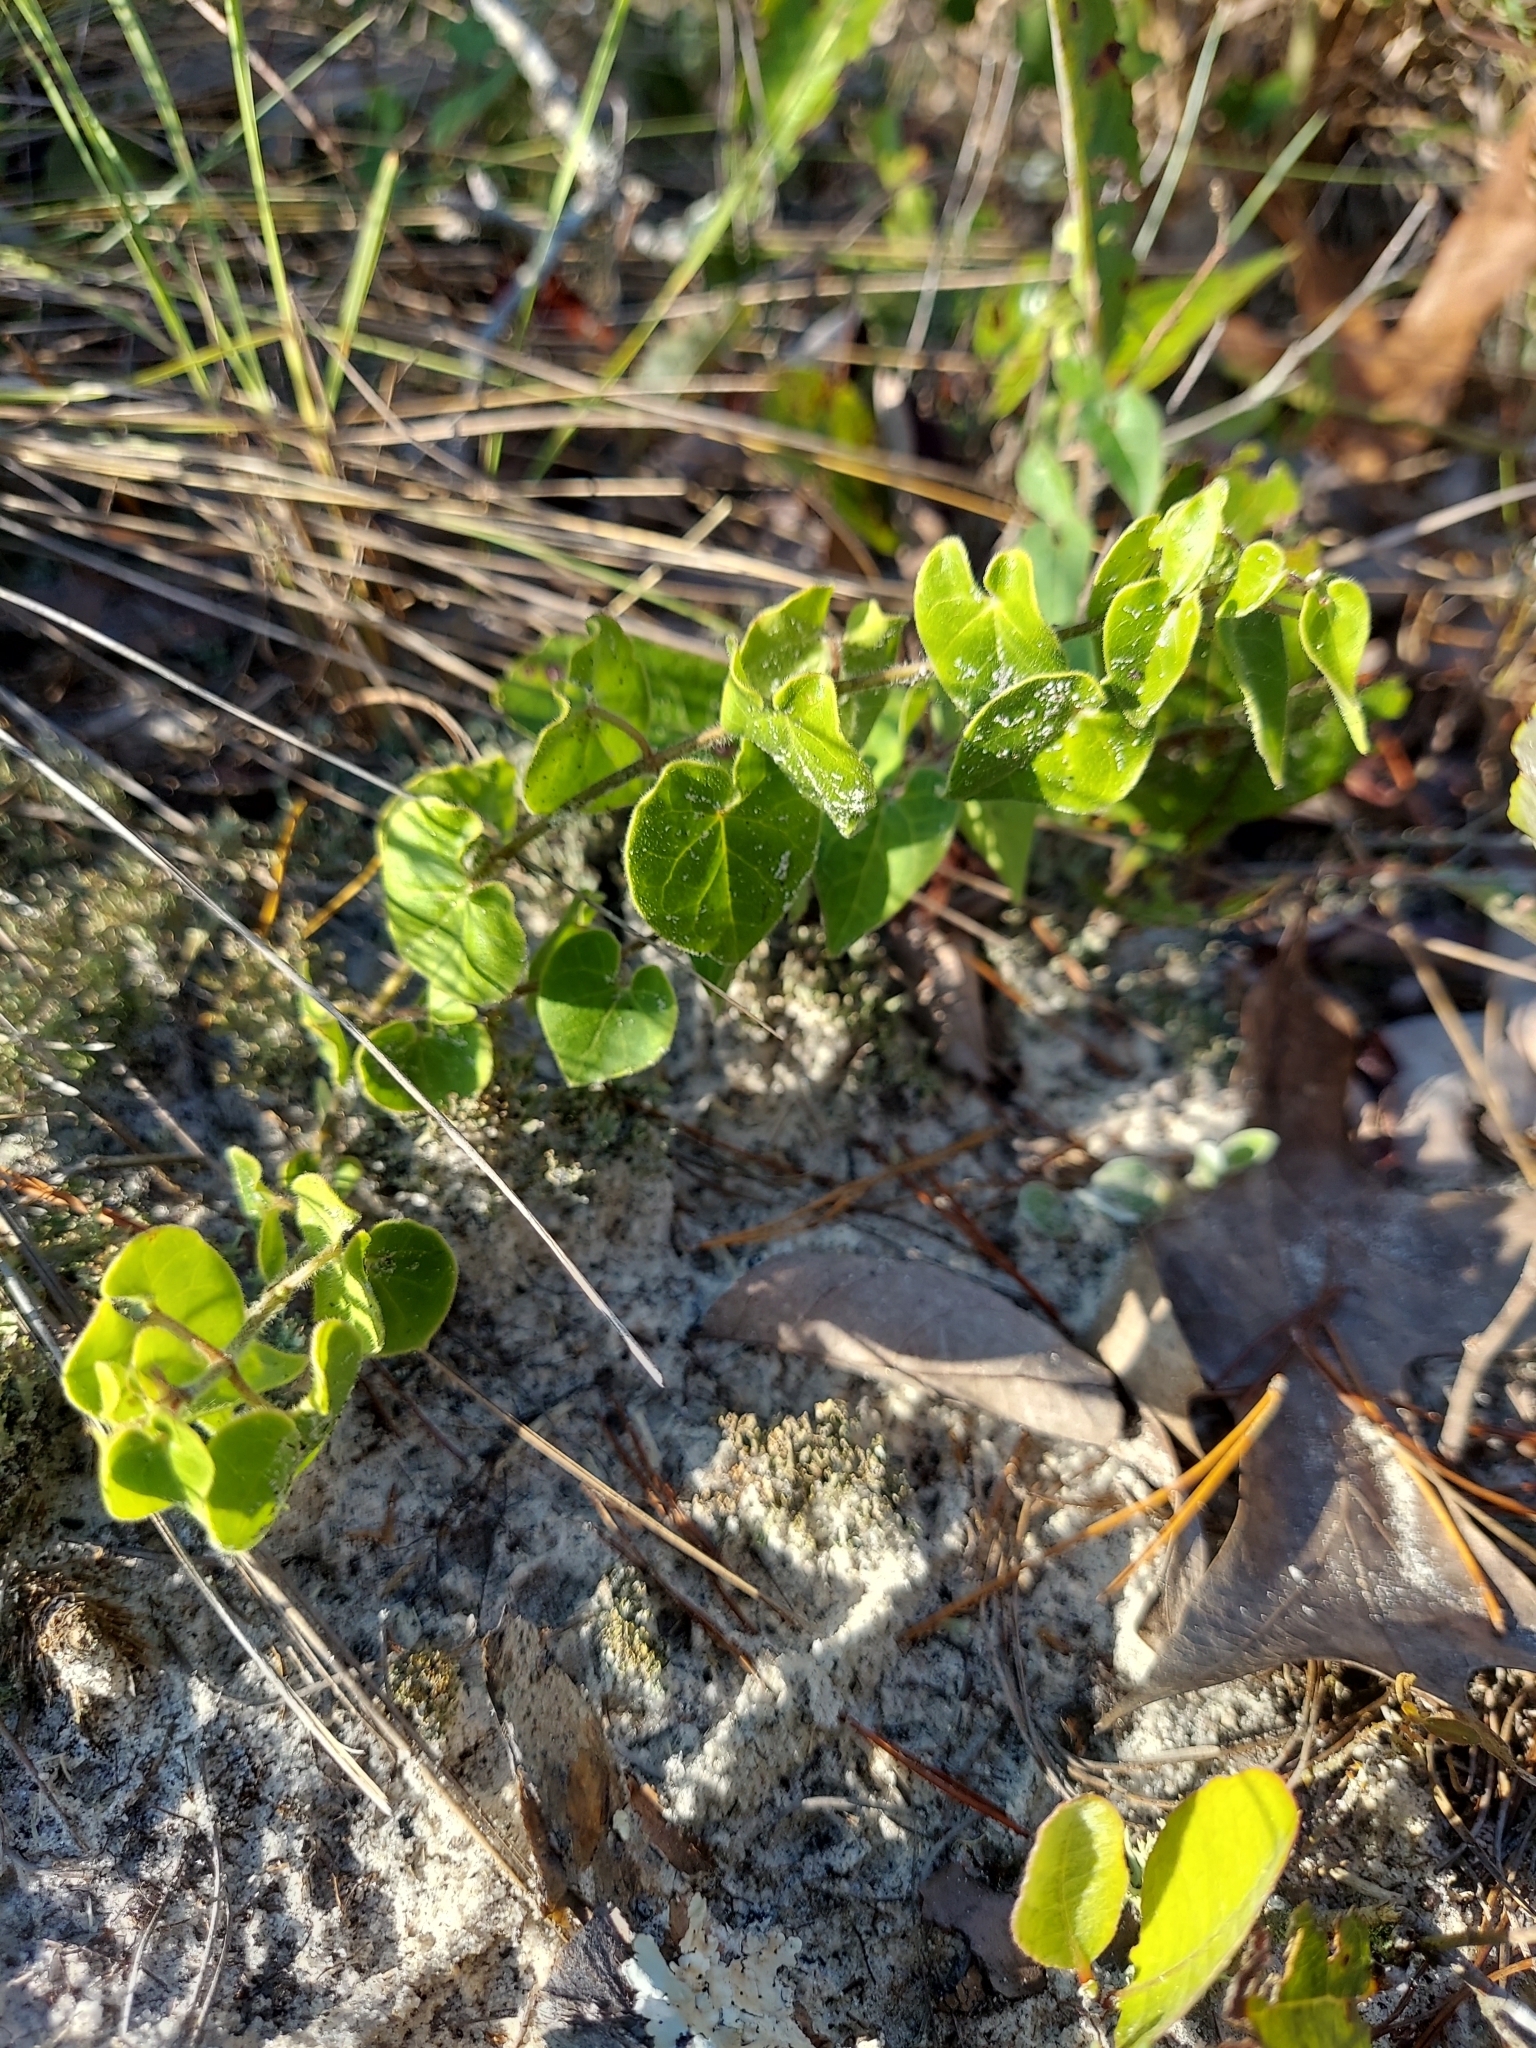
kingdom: Plantae
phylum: Tracheophyta
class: Magnoliopsida
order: Gentianales
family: Apocynaceae
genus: Chthamalia
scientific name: Chthamalia pubiflora
